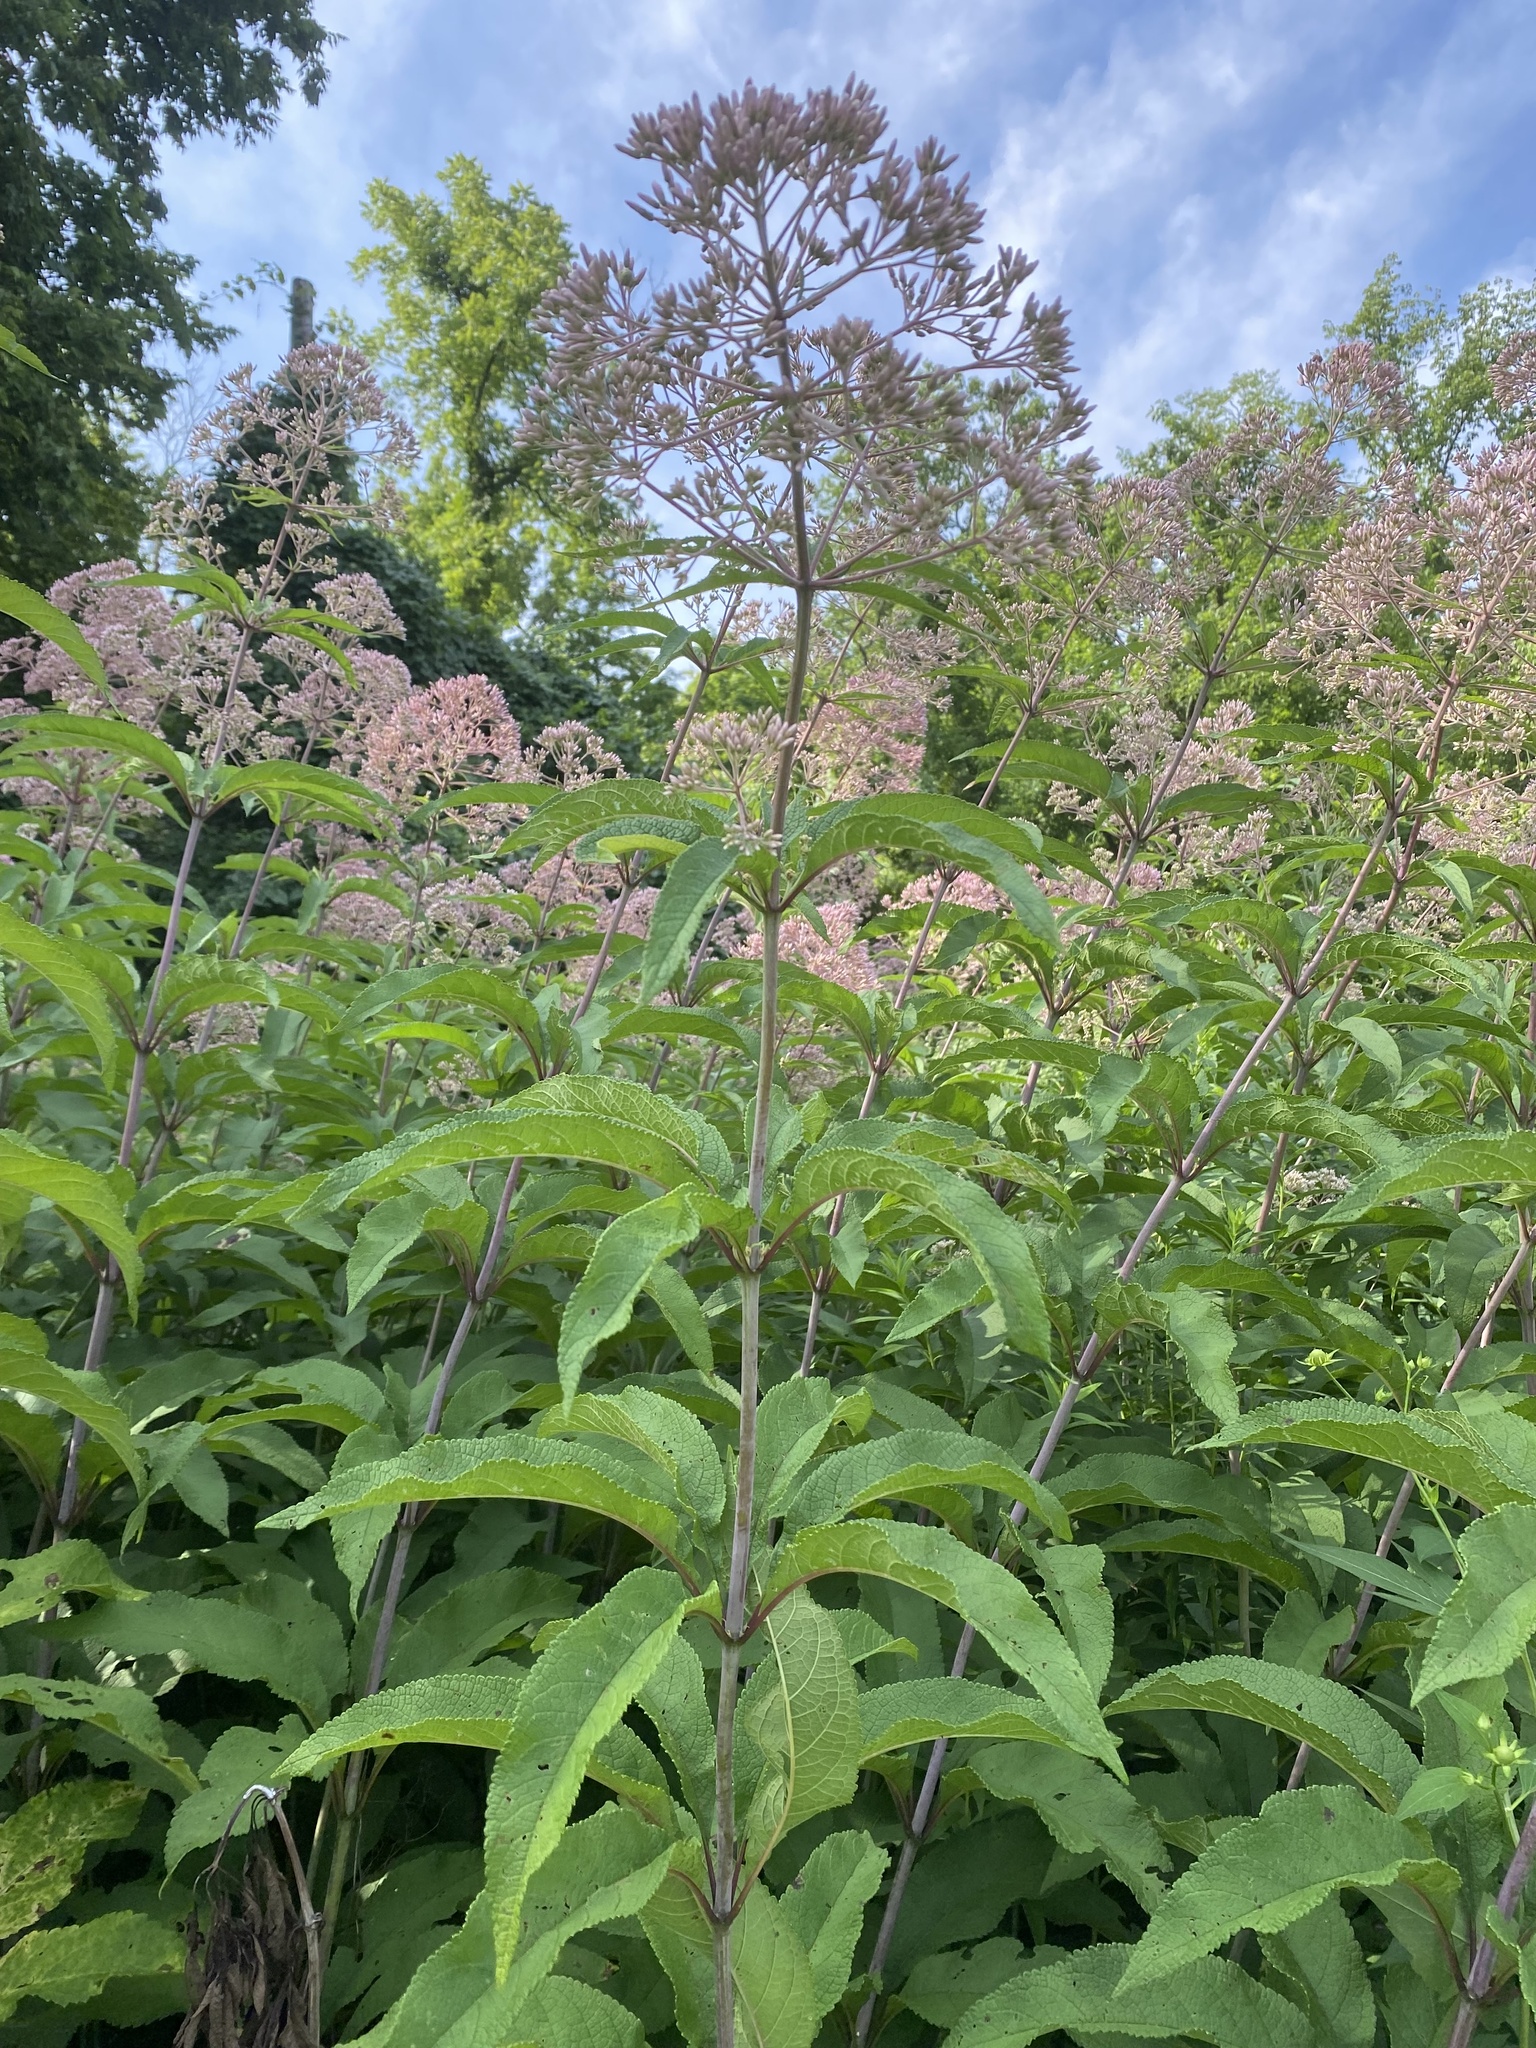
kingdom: Plantae
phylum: Tracheophyta
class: Magnoliopsida
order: Asterales
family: Asteraceae
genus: Eutrochium
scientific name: Eutrochium fistulosum
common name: Trumpetweed
